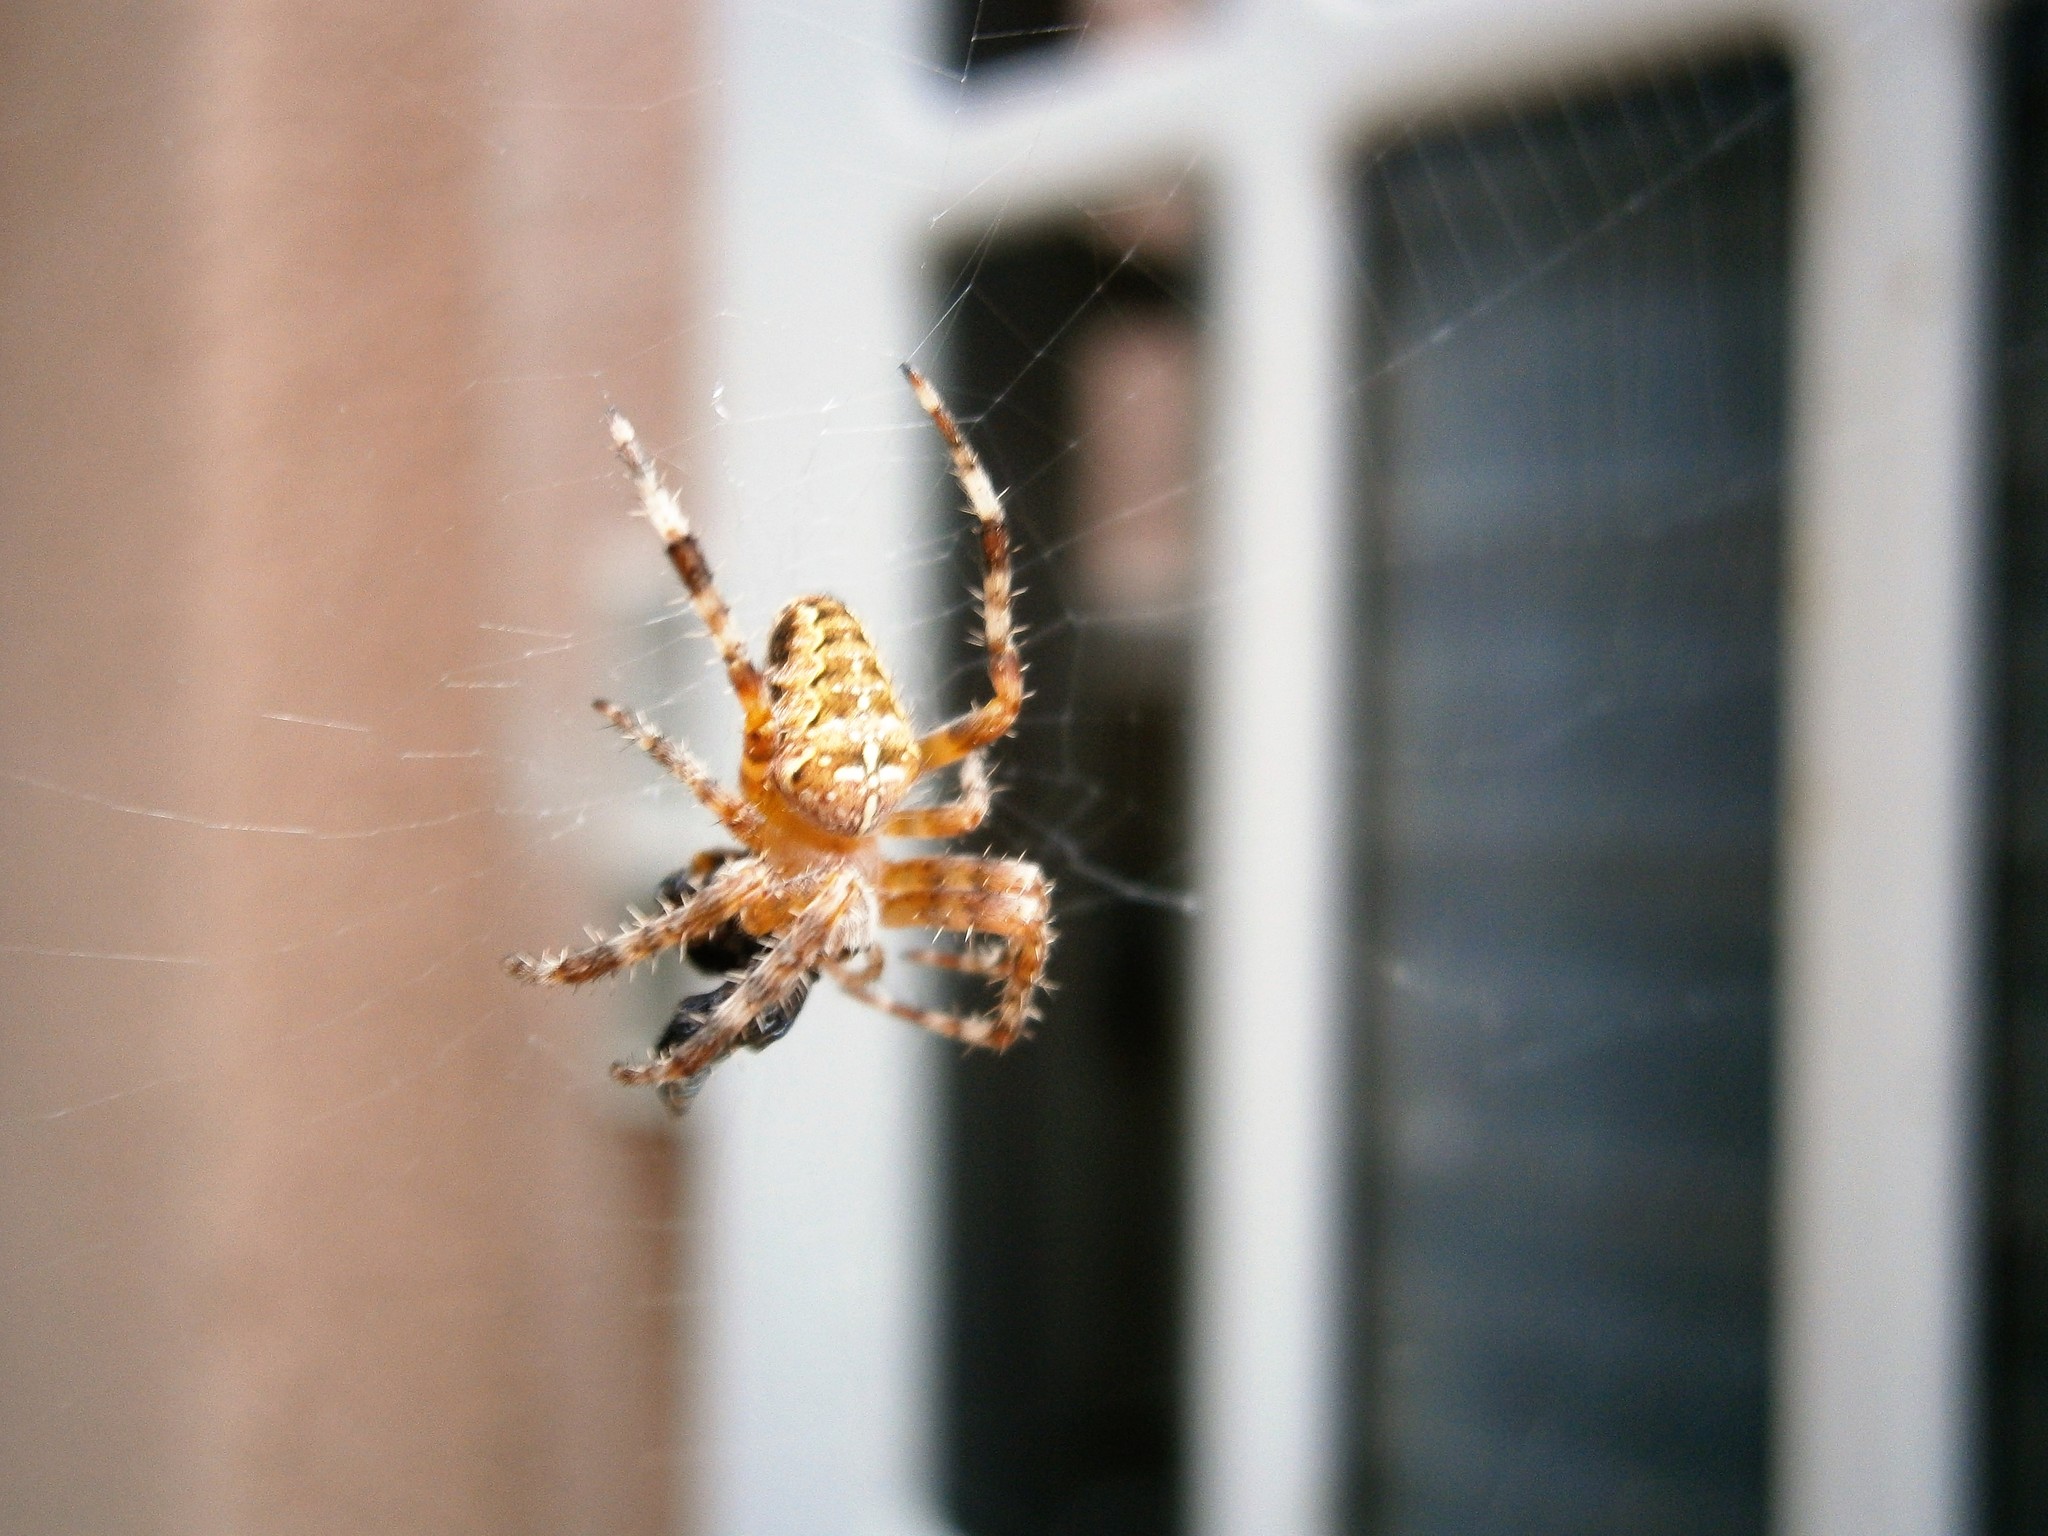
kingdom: Animalia
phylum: Arthropoda
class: Arachnida
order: Araneae
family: Araneidae
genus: Araneus
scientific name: Araneus diadematus
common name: Cross orbweaver
